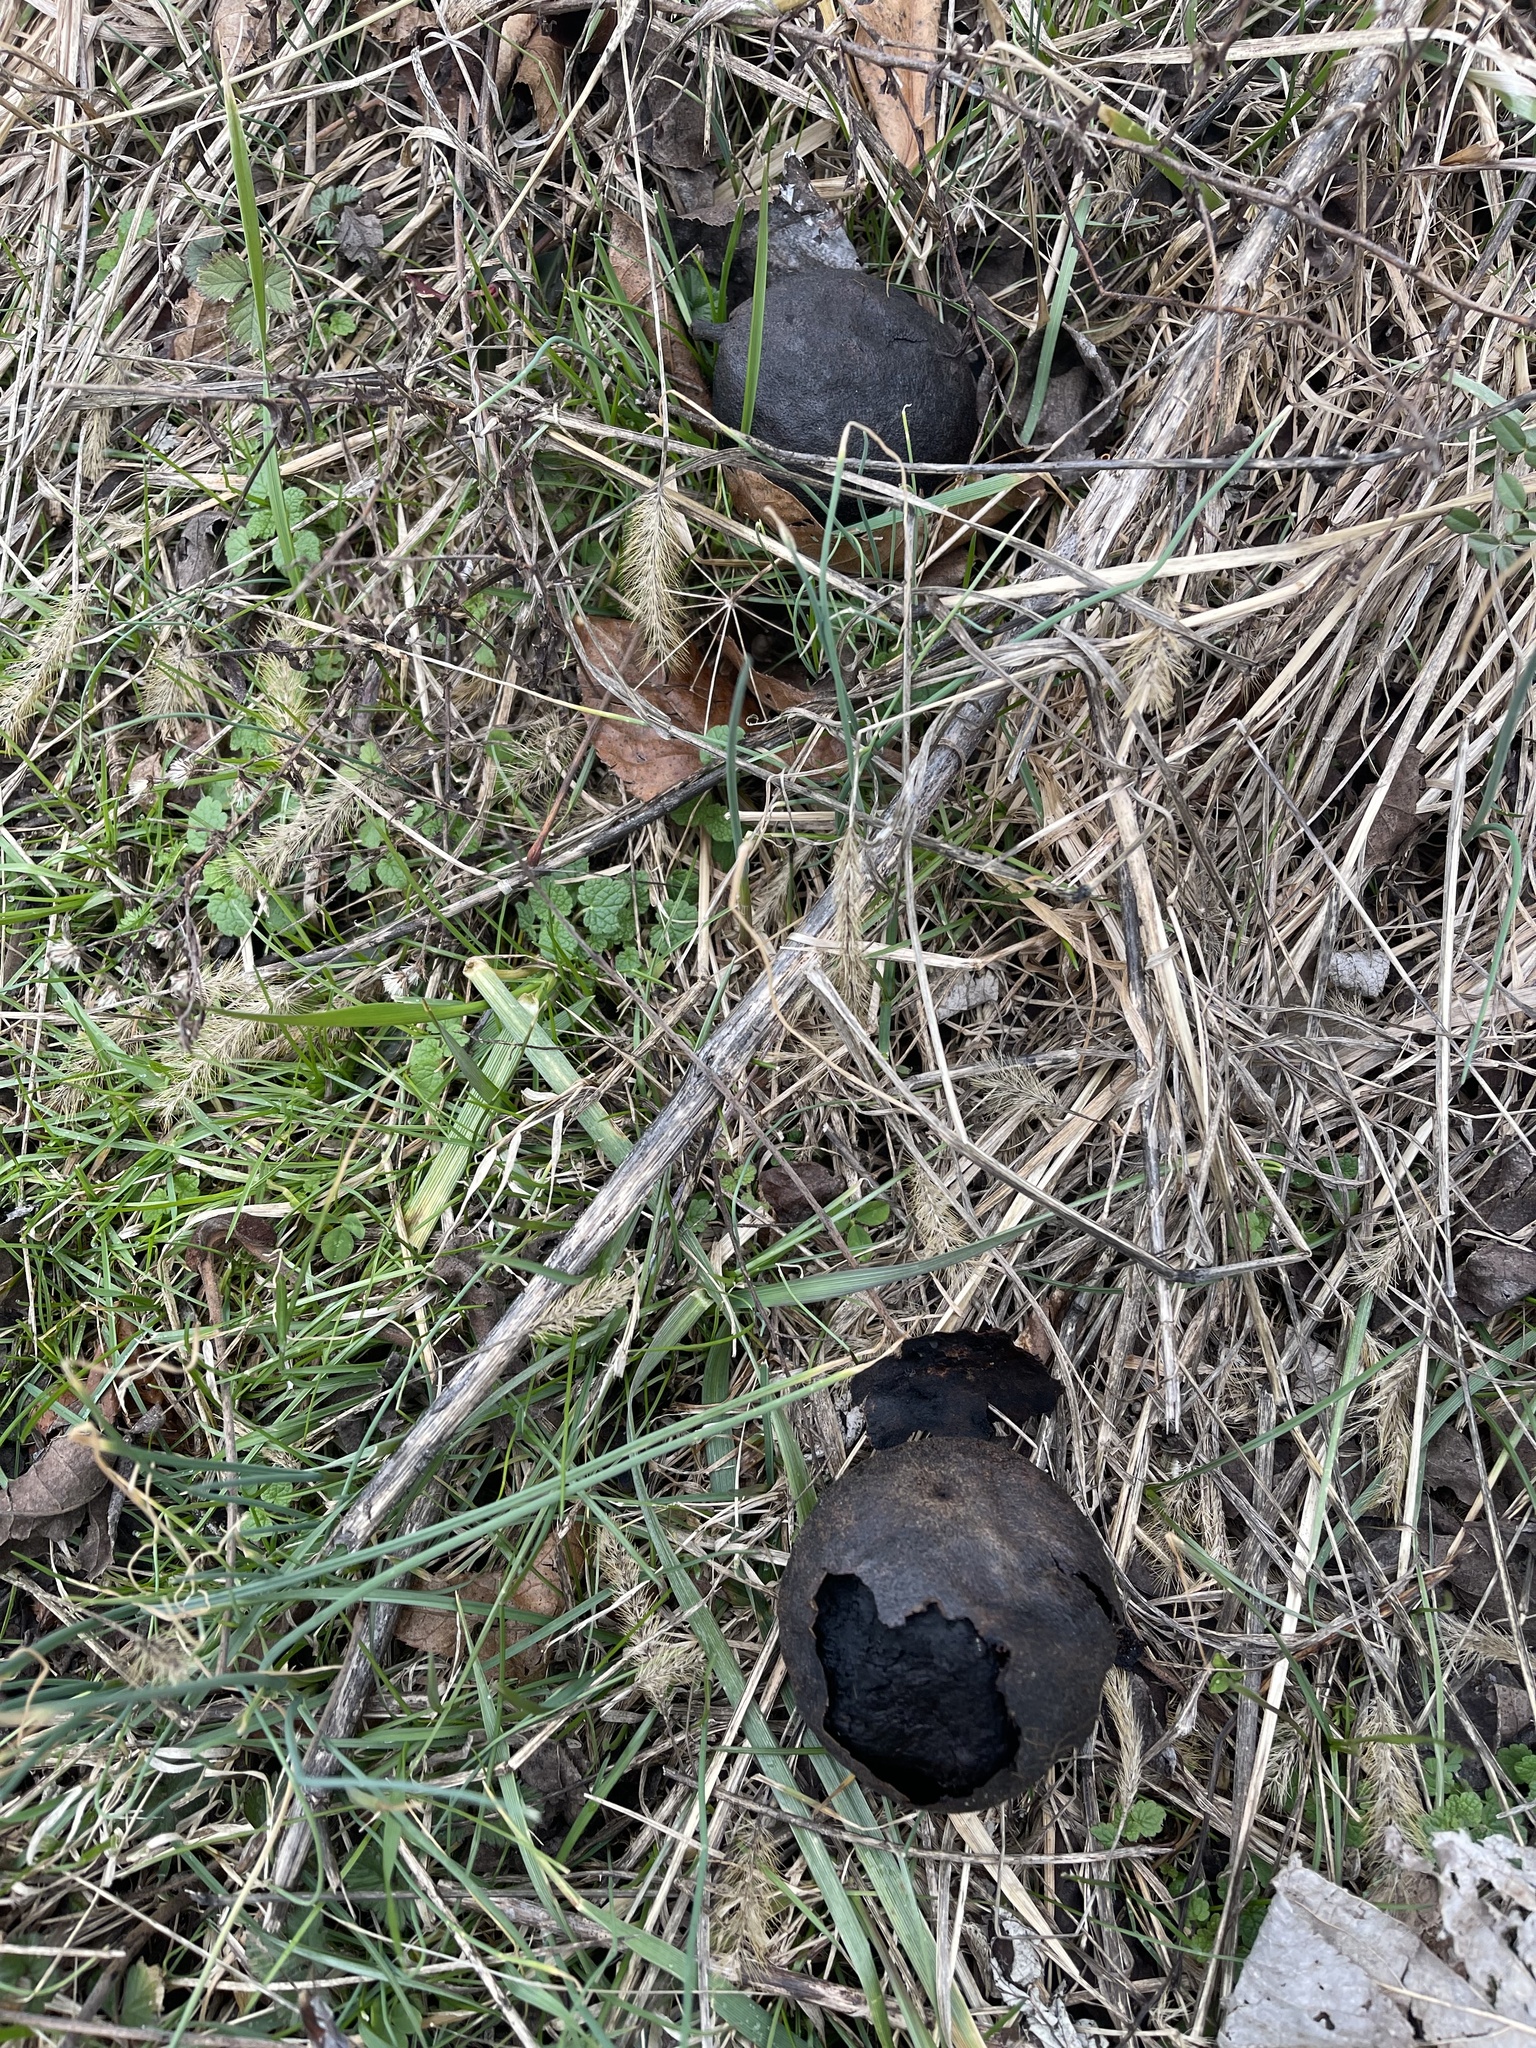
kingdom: Plantae
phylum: Tracheophyta
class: Magnoliopsida
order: Fagales
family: Juglandaceae
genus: Juglans
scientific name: Juglans nigra
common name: Black walnut
